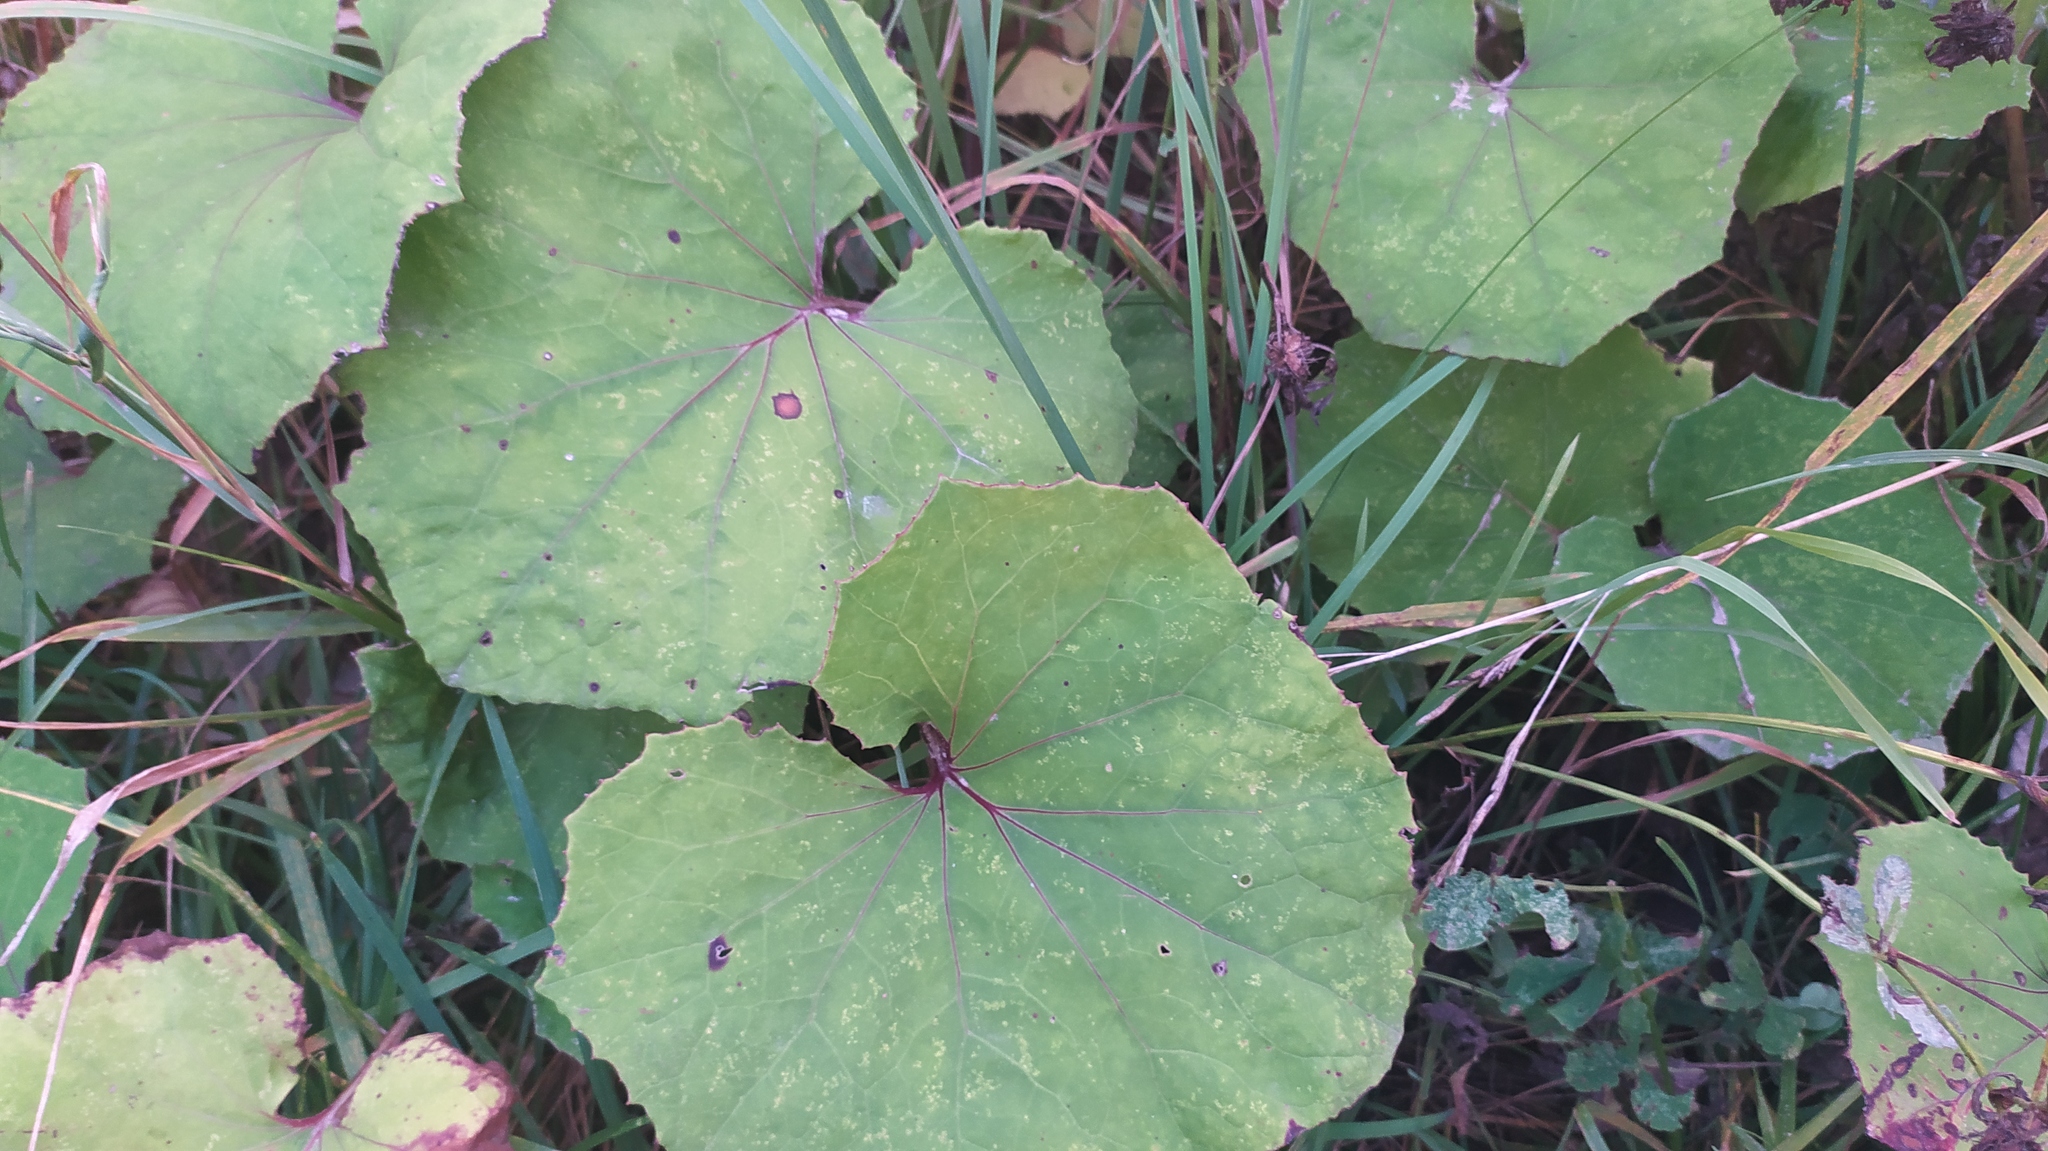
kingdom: Plantae
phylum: Tracheophyta
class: Magnoliopsida
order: Asterales
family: Asteraceae
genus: Tussilago
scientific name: Tussilago farfara
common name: Coltsfoot
